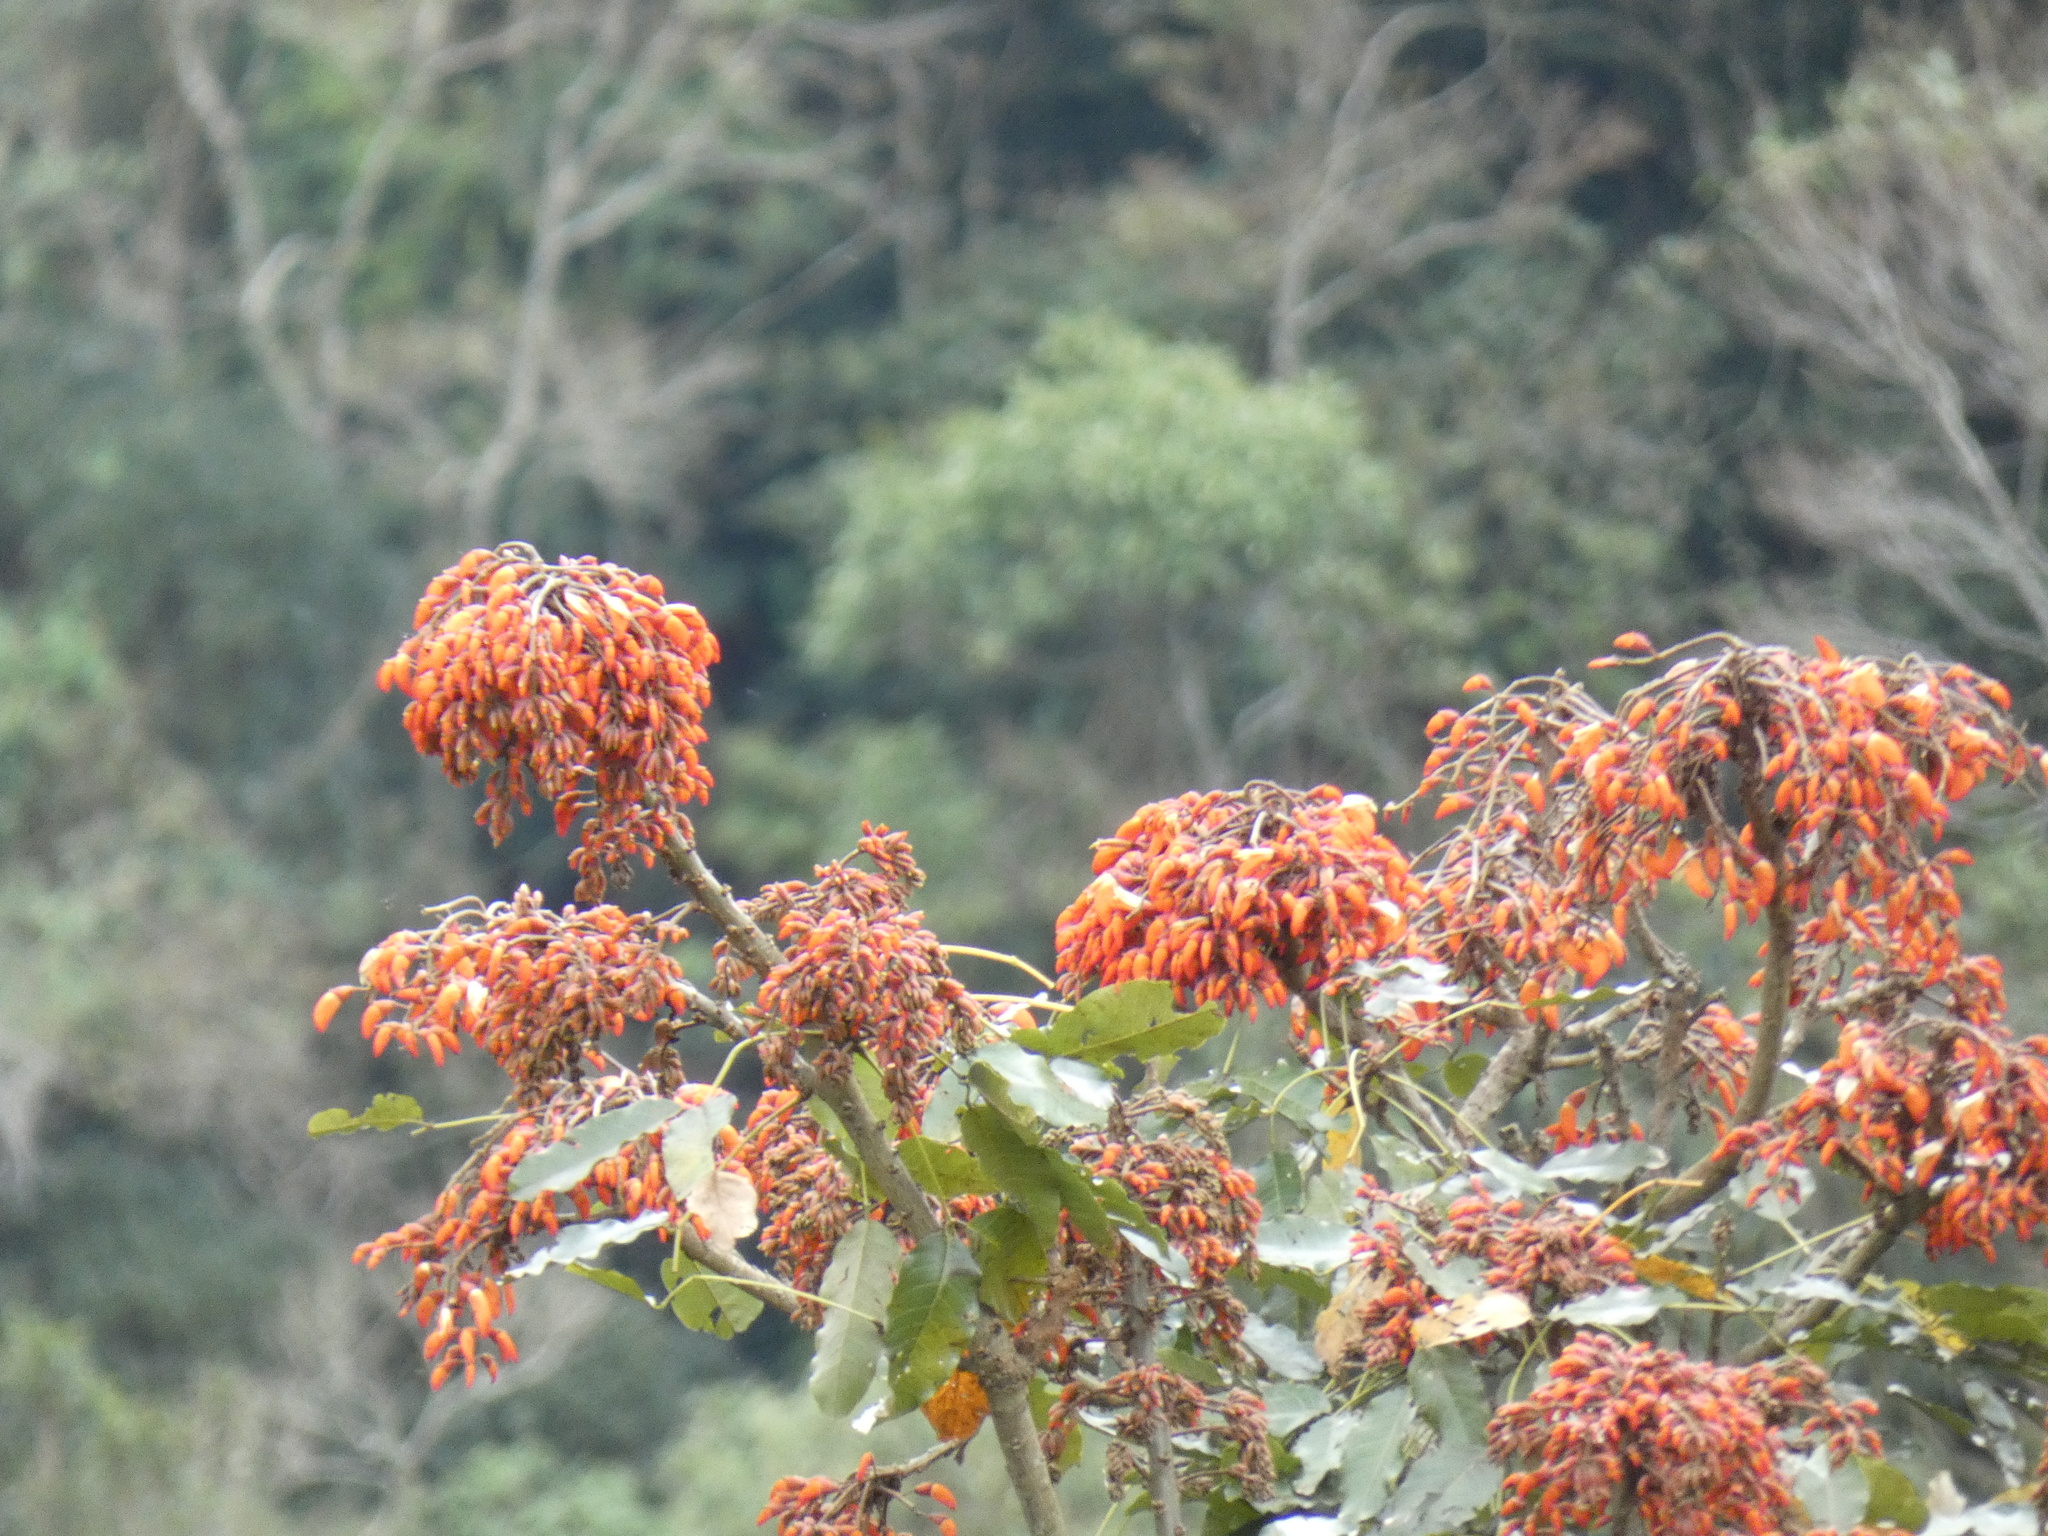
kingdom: Plantae
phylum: Tracheophyta
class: Magnoliopsida
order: Fabales
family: Fabaceae
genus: Erythrina
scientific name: Erythrina falcata
